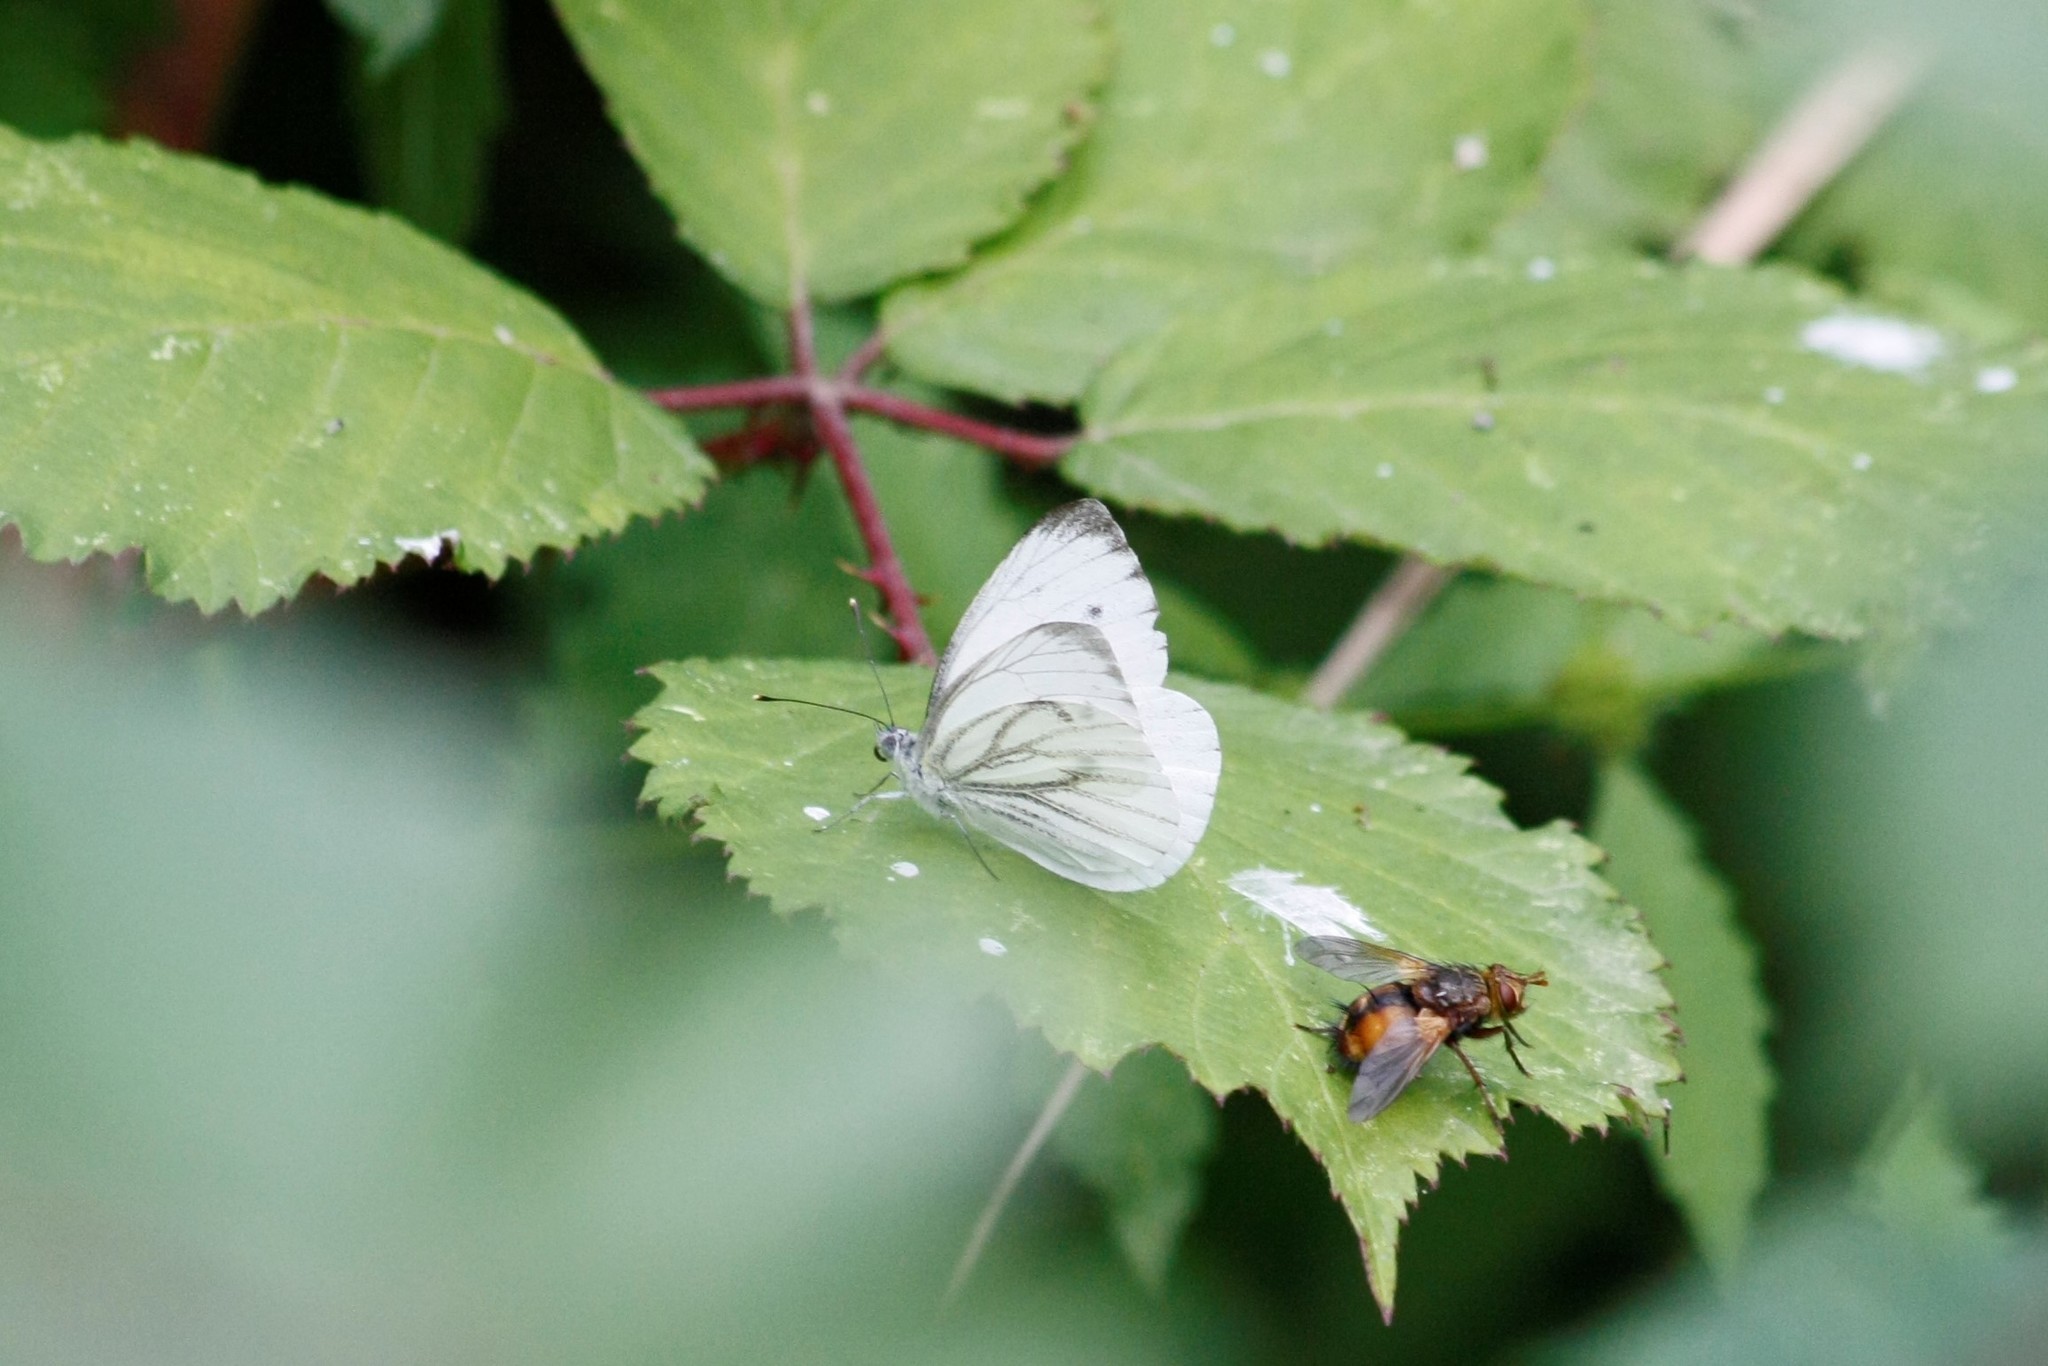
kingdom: Animalia
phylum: Arthropoda
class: Insecta
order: Lepidoptera
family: Pieridae
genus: Pieris
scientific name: Pieris napi
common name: Green-veined white
